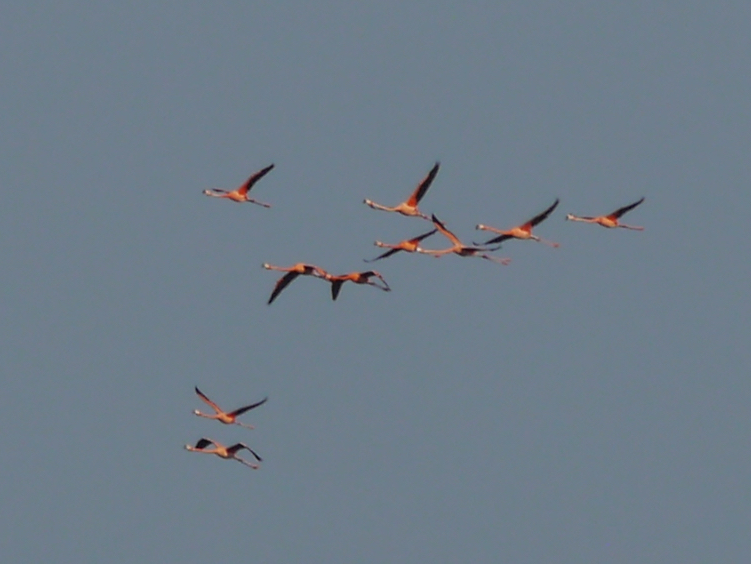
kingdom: Animalia
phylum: Chordata
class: Aves
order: Phoenicopteriformes
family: Phoenicopteridae
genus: Phoenicopterus
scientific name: Phoenicopterus ruber
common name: American flamingo
